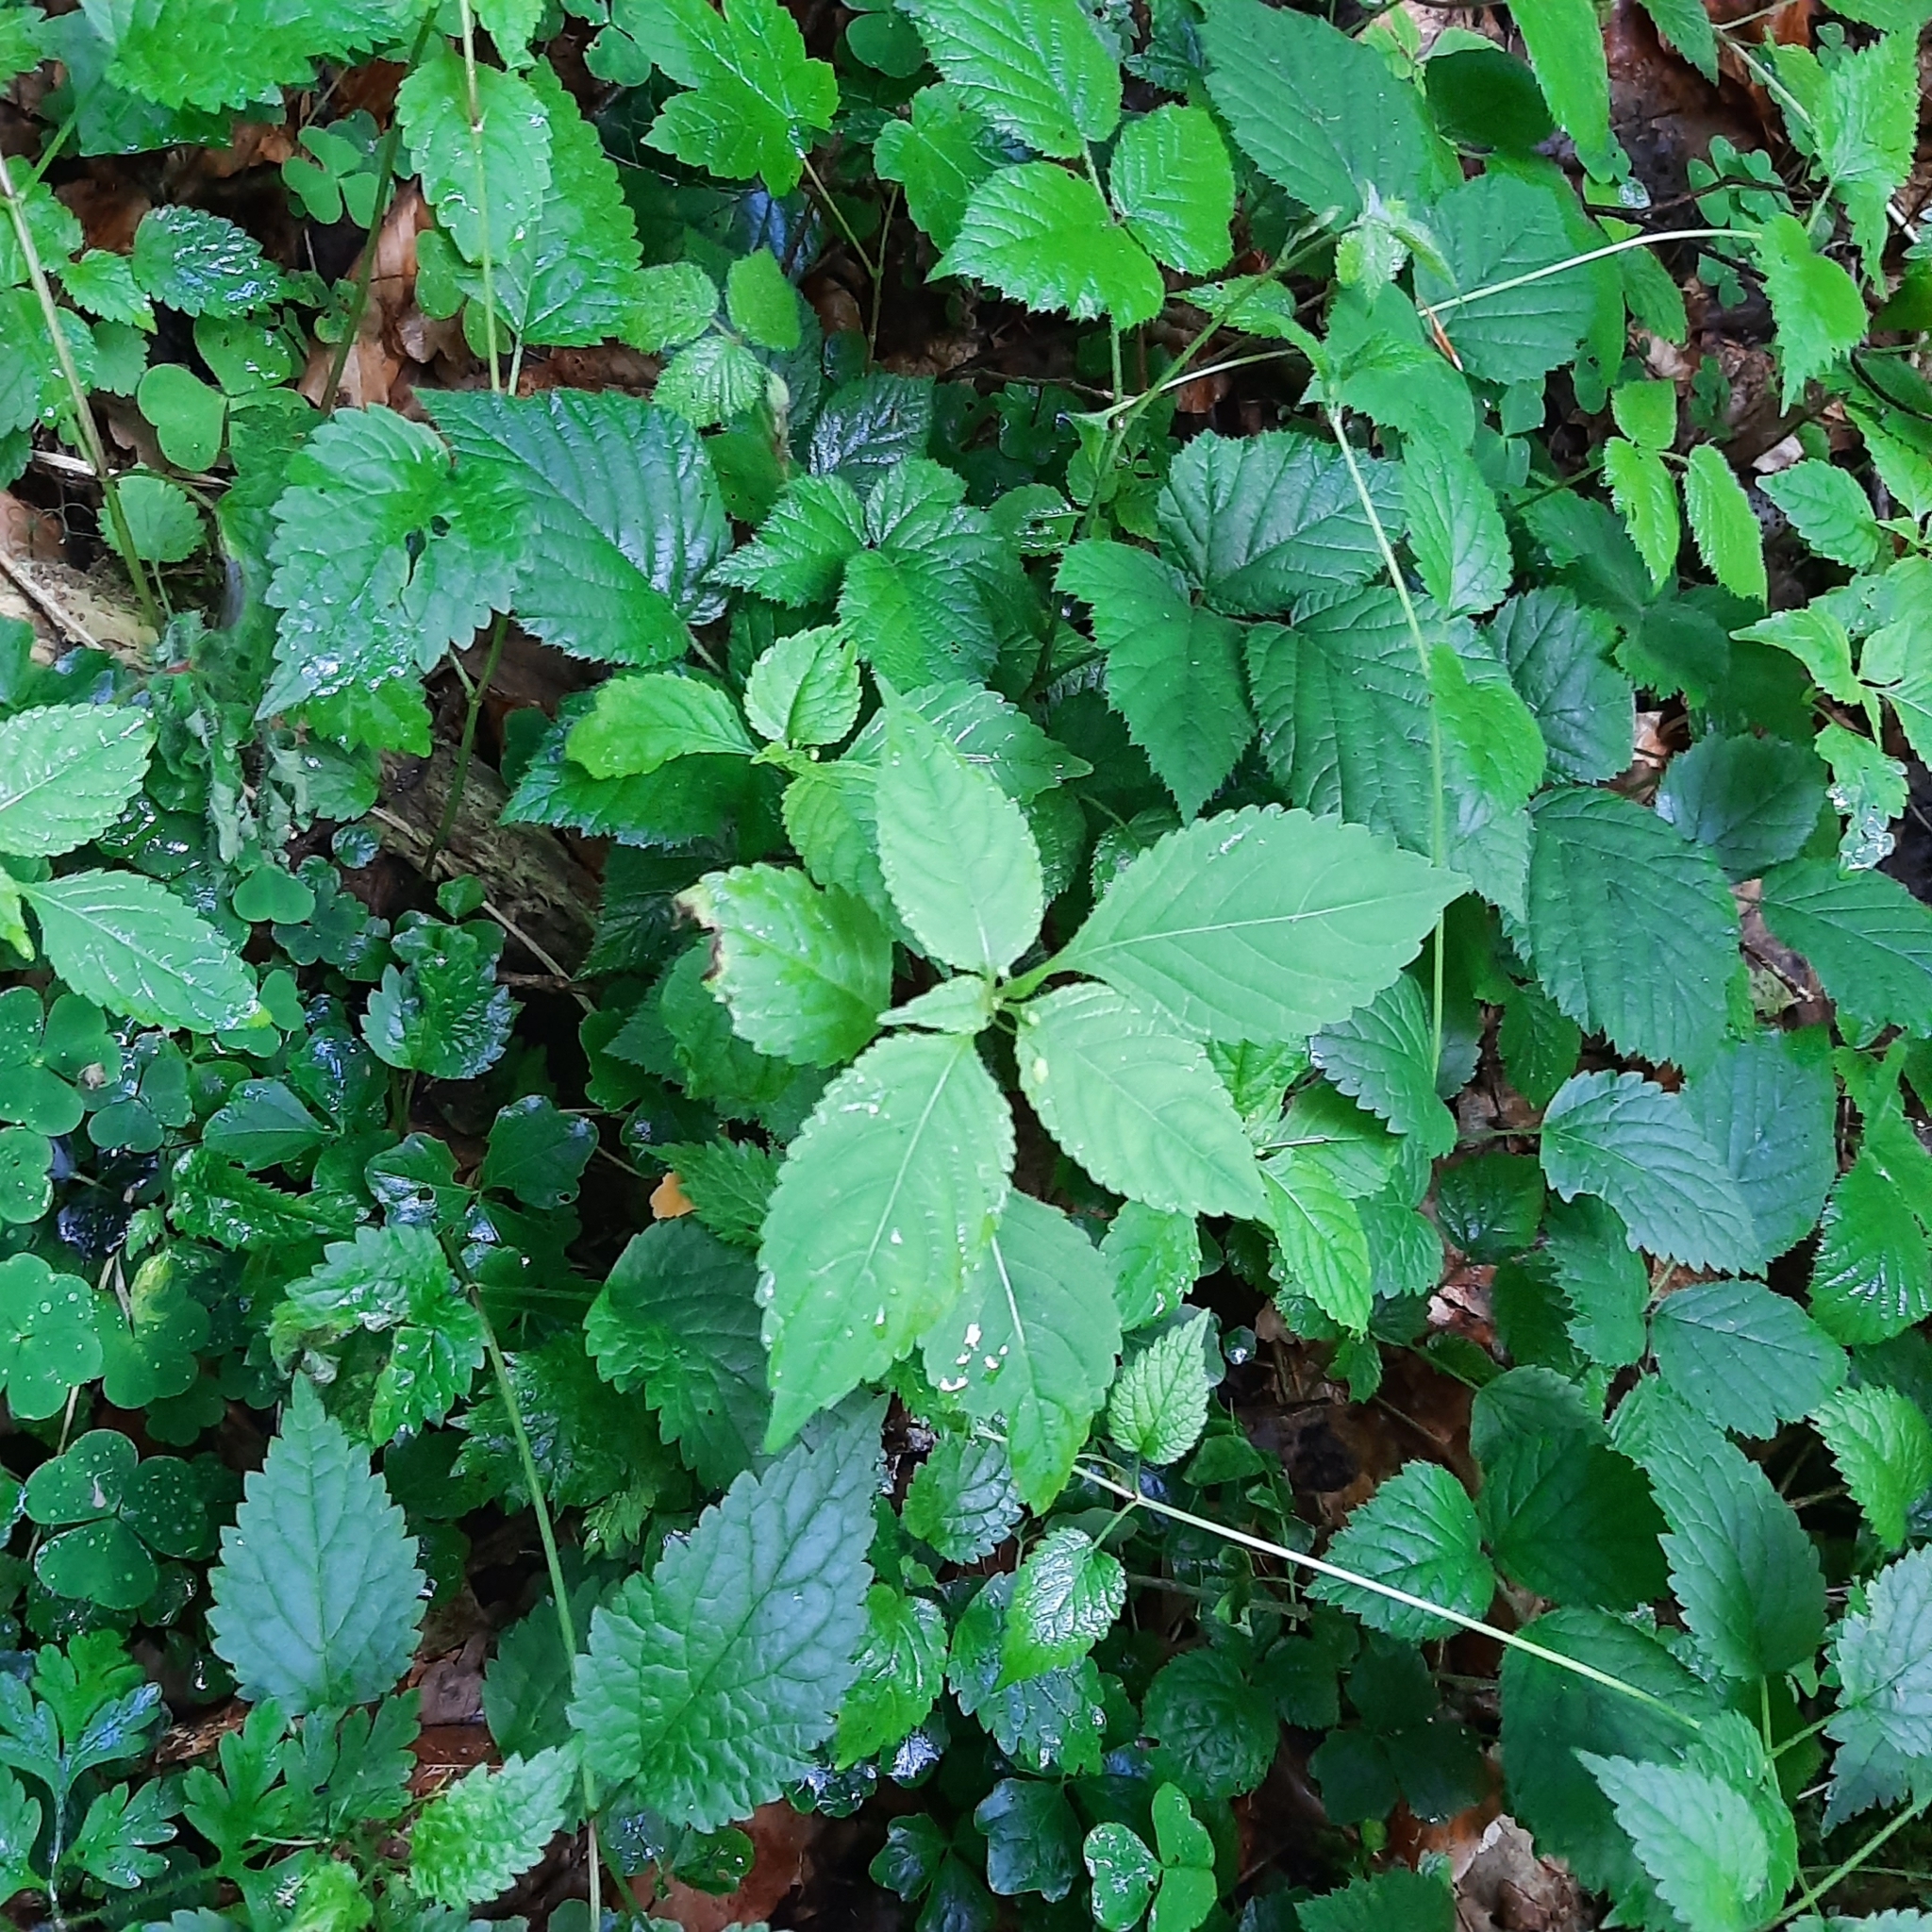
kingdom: Plantae
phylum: Tracheophyta
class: Magnoliopsida
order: Ericales
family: Balsaminaceae
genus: Impatiens
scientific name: Impatiens parviflora
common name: Small balsam
